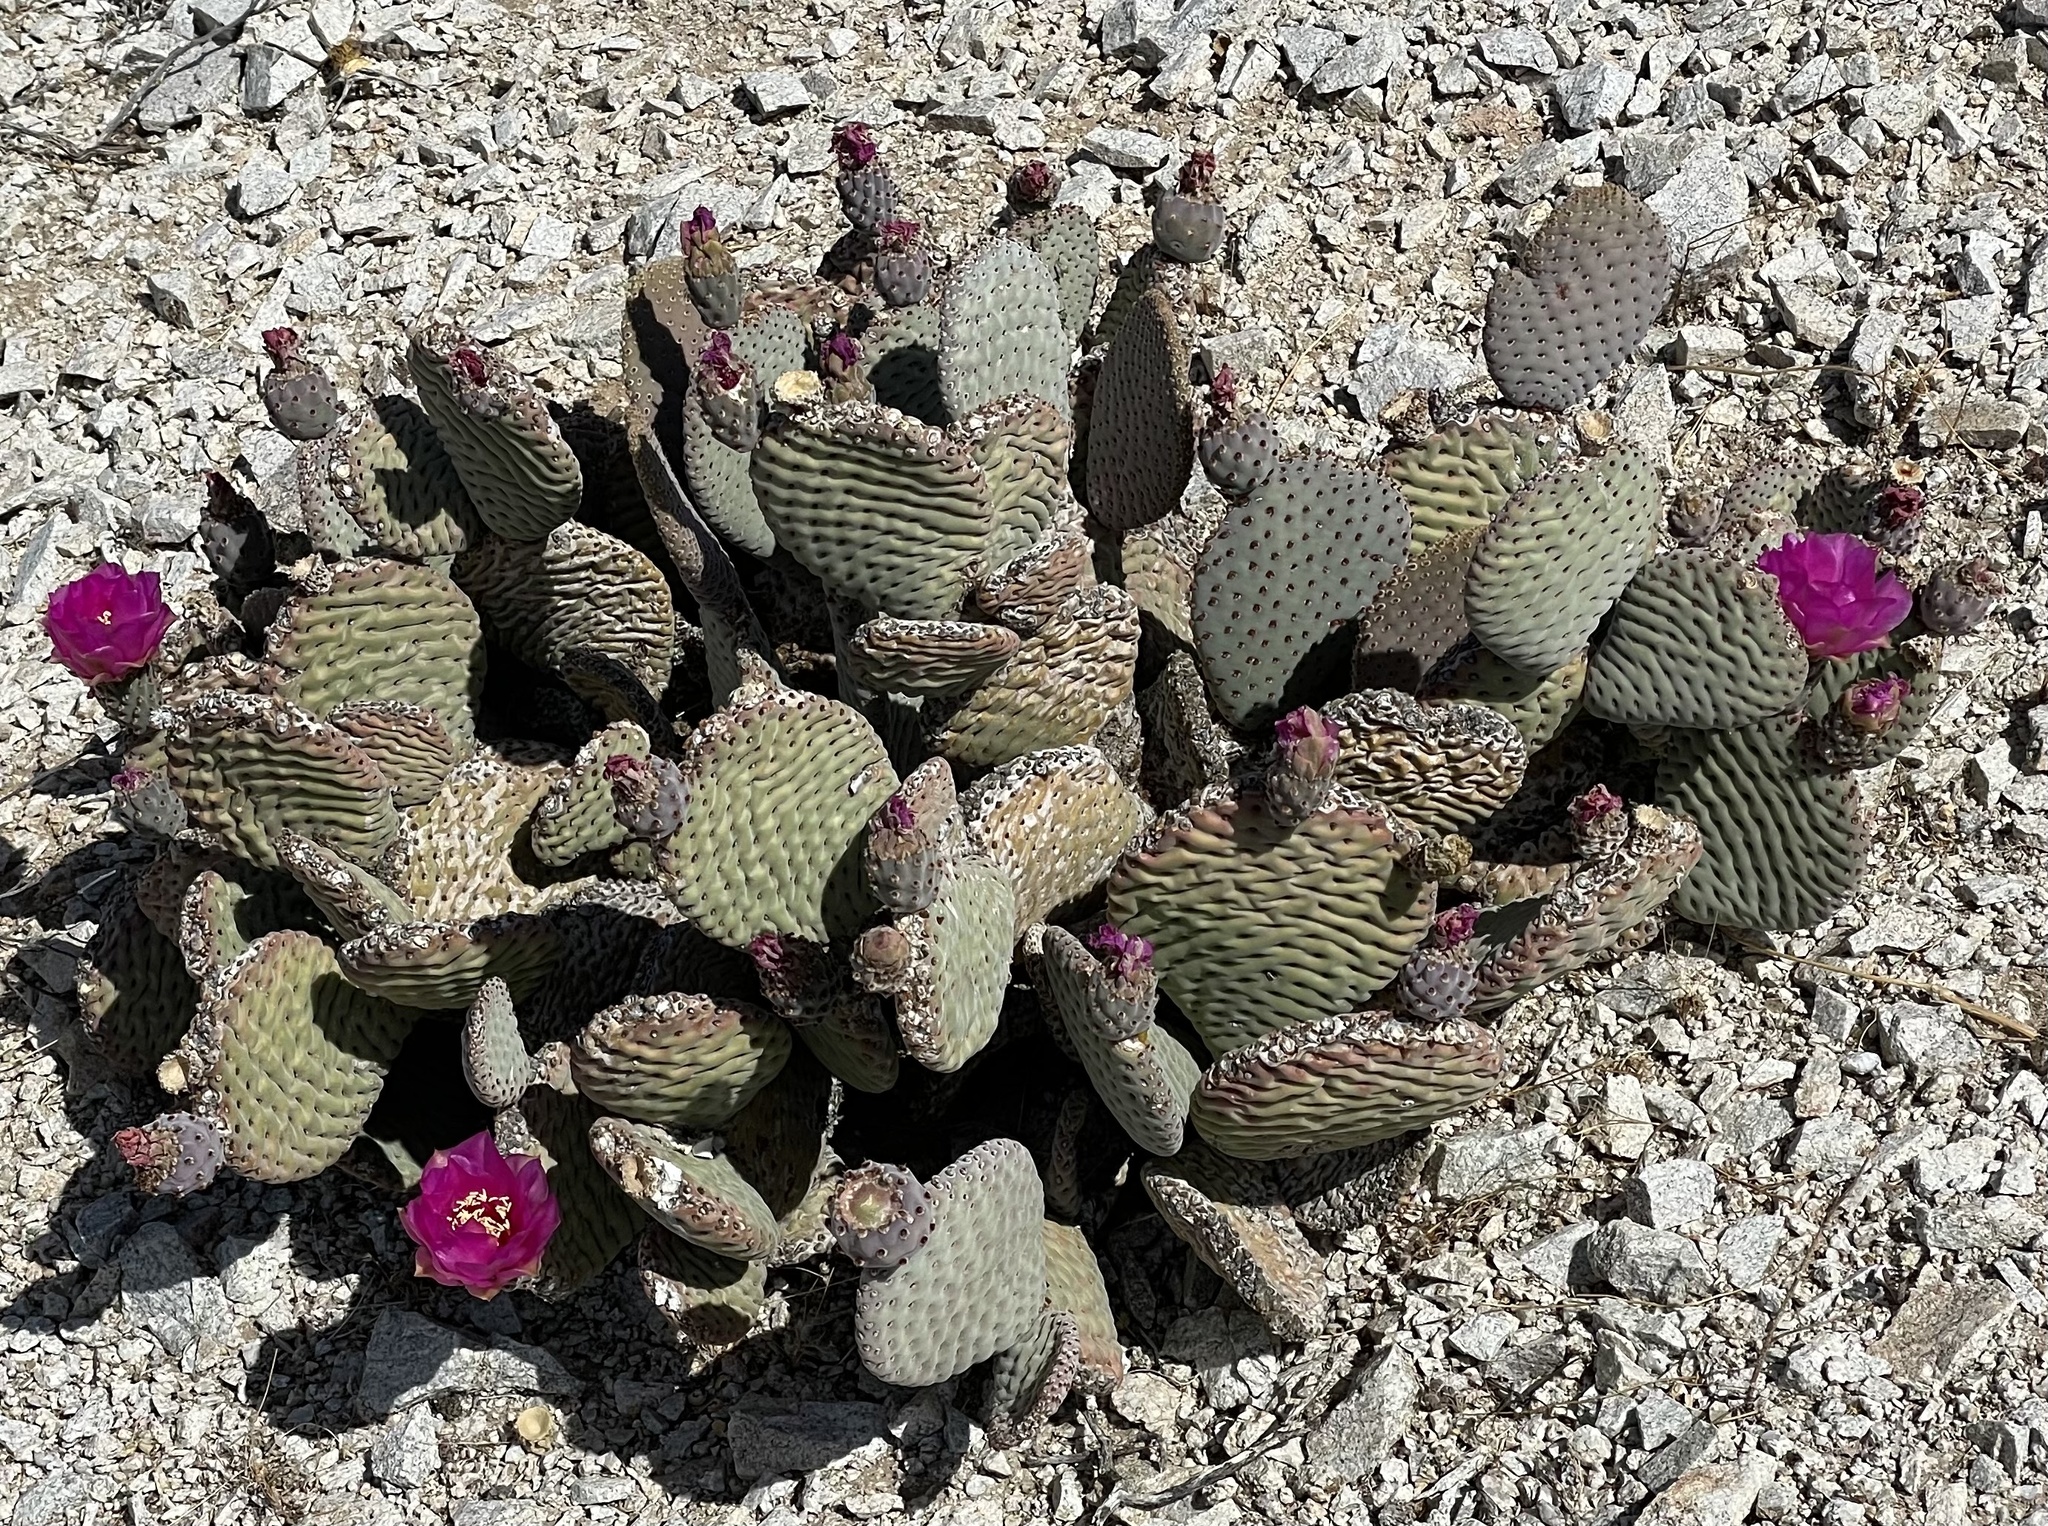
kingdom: Plantae
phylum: Tracheophyta
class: Magnoliopsida
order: Caryophyllales
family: Cactaceae
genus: Opuntia
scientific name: Opuntia basilaris
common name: Beavertail prickly-pear
